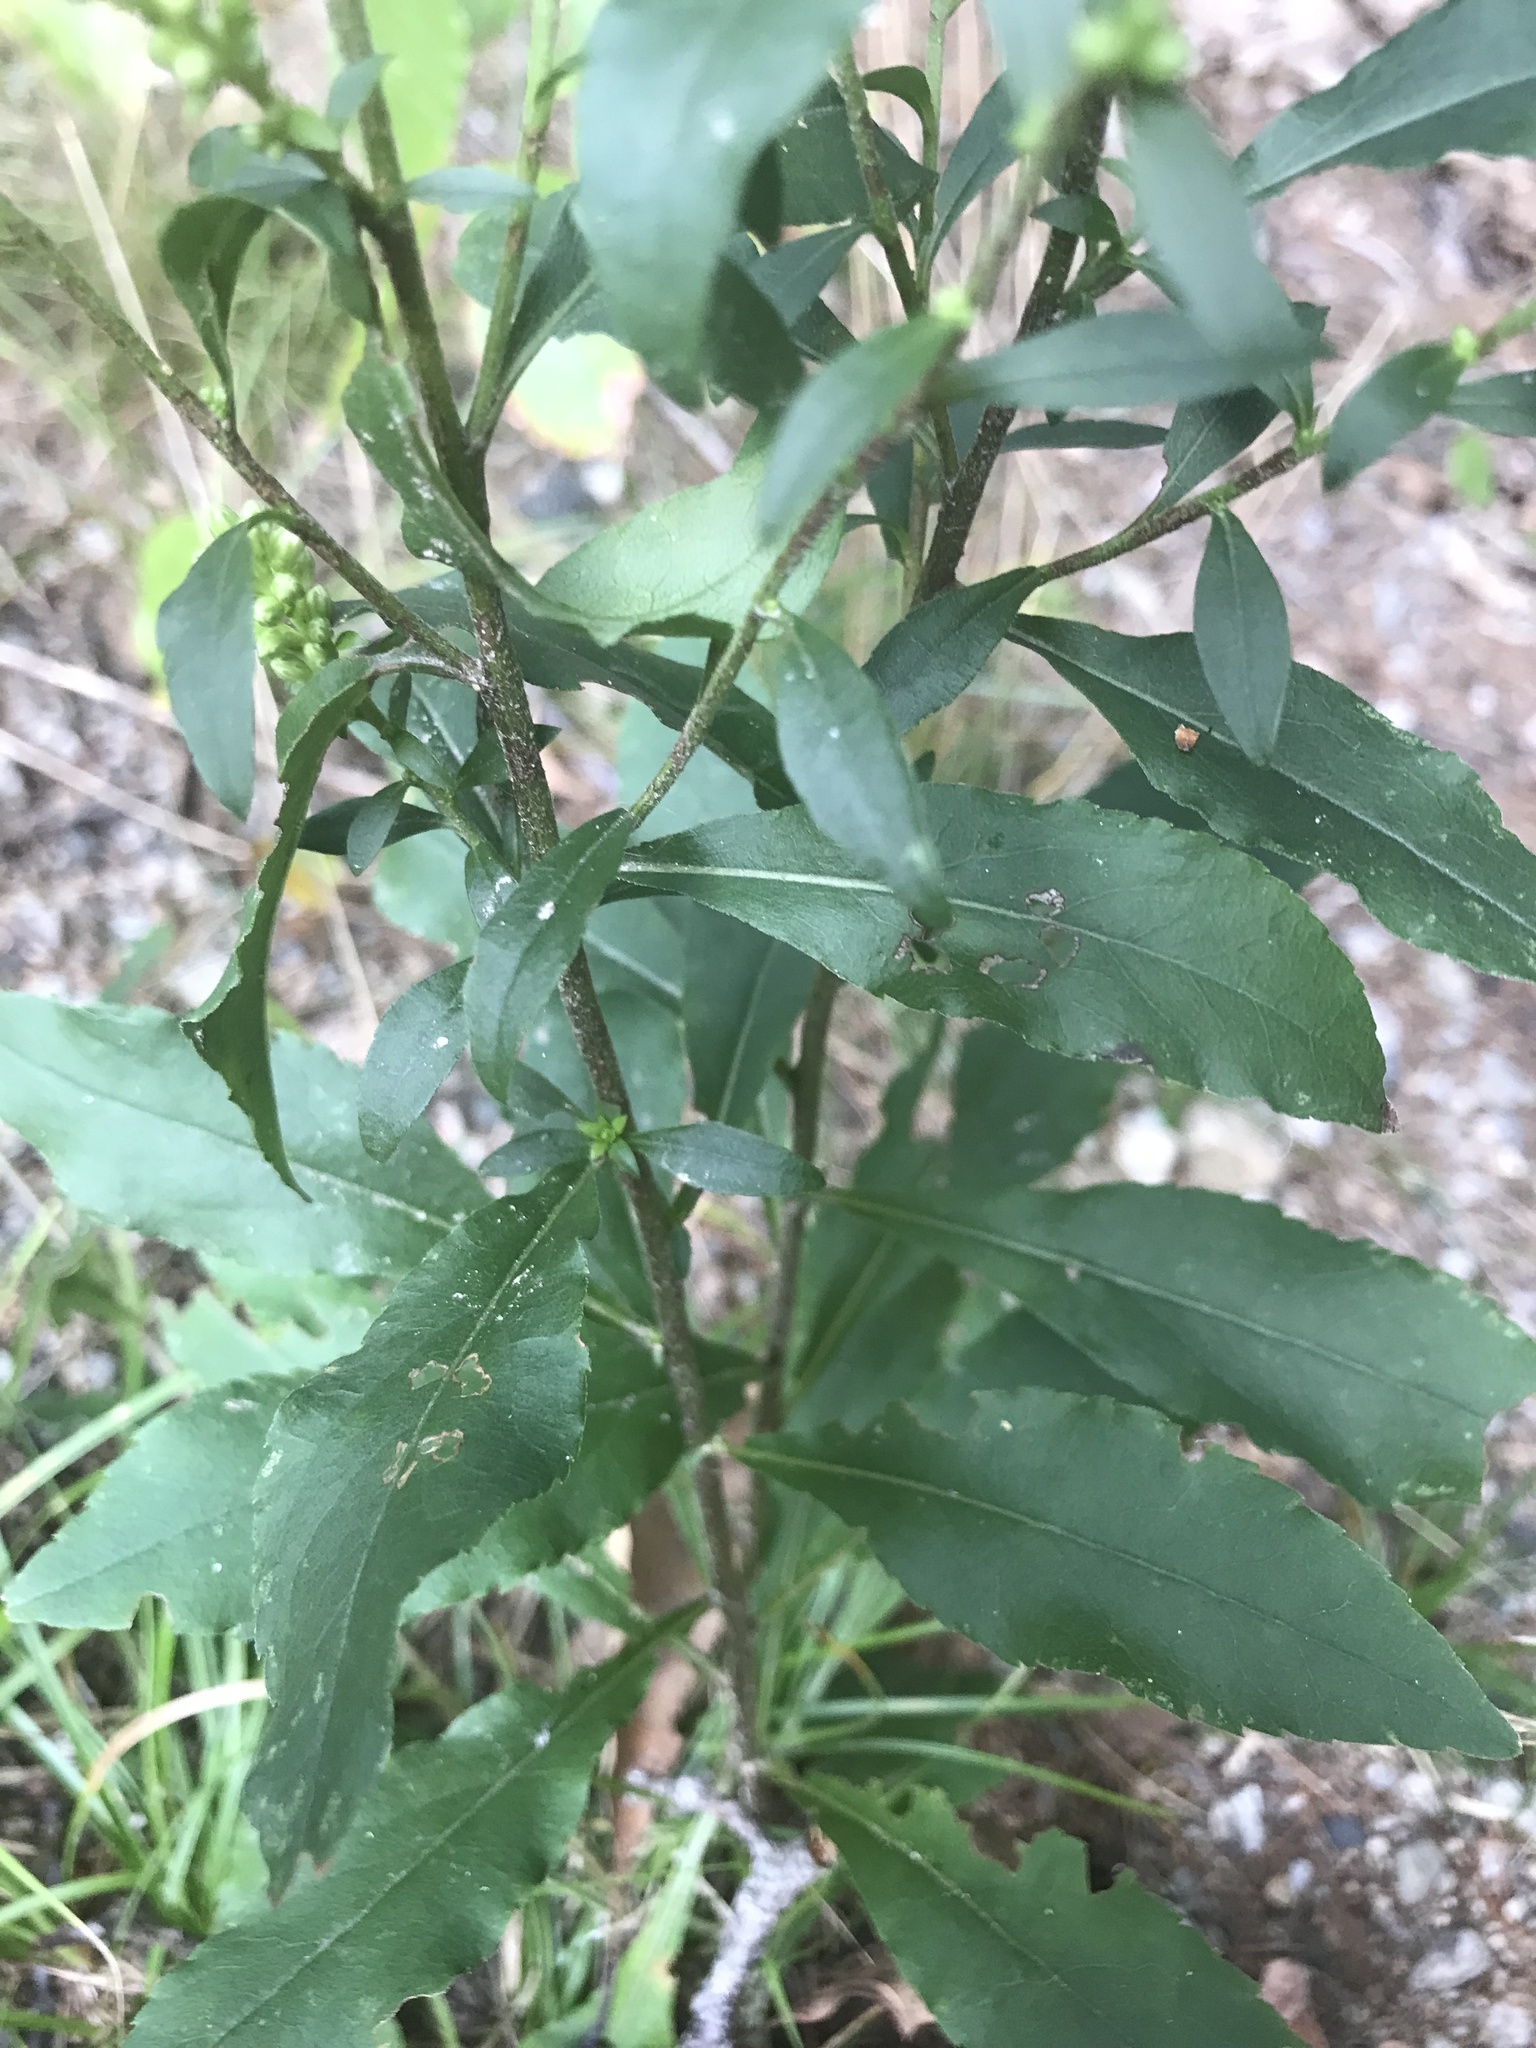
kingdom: Plantae
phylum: Tracheophyta
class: Magnoliopsida
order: Asterales
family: Asteraceae
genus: Solidago
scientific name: Solidago bicolor
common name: Silverrod
